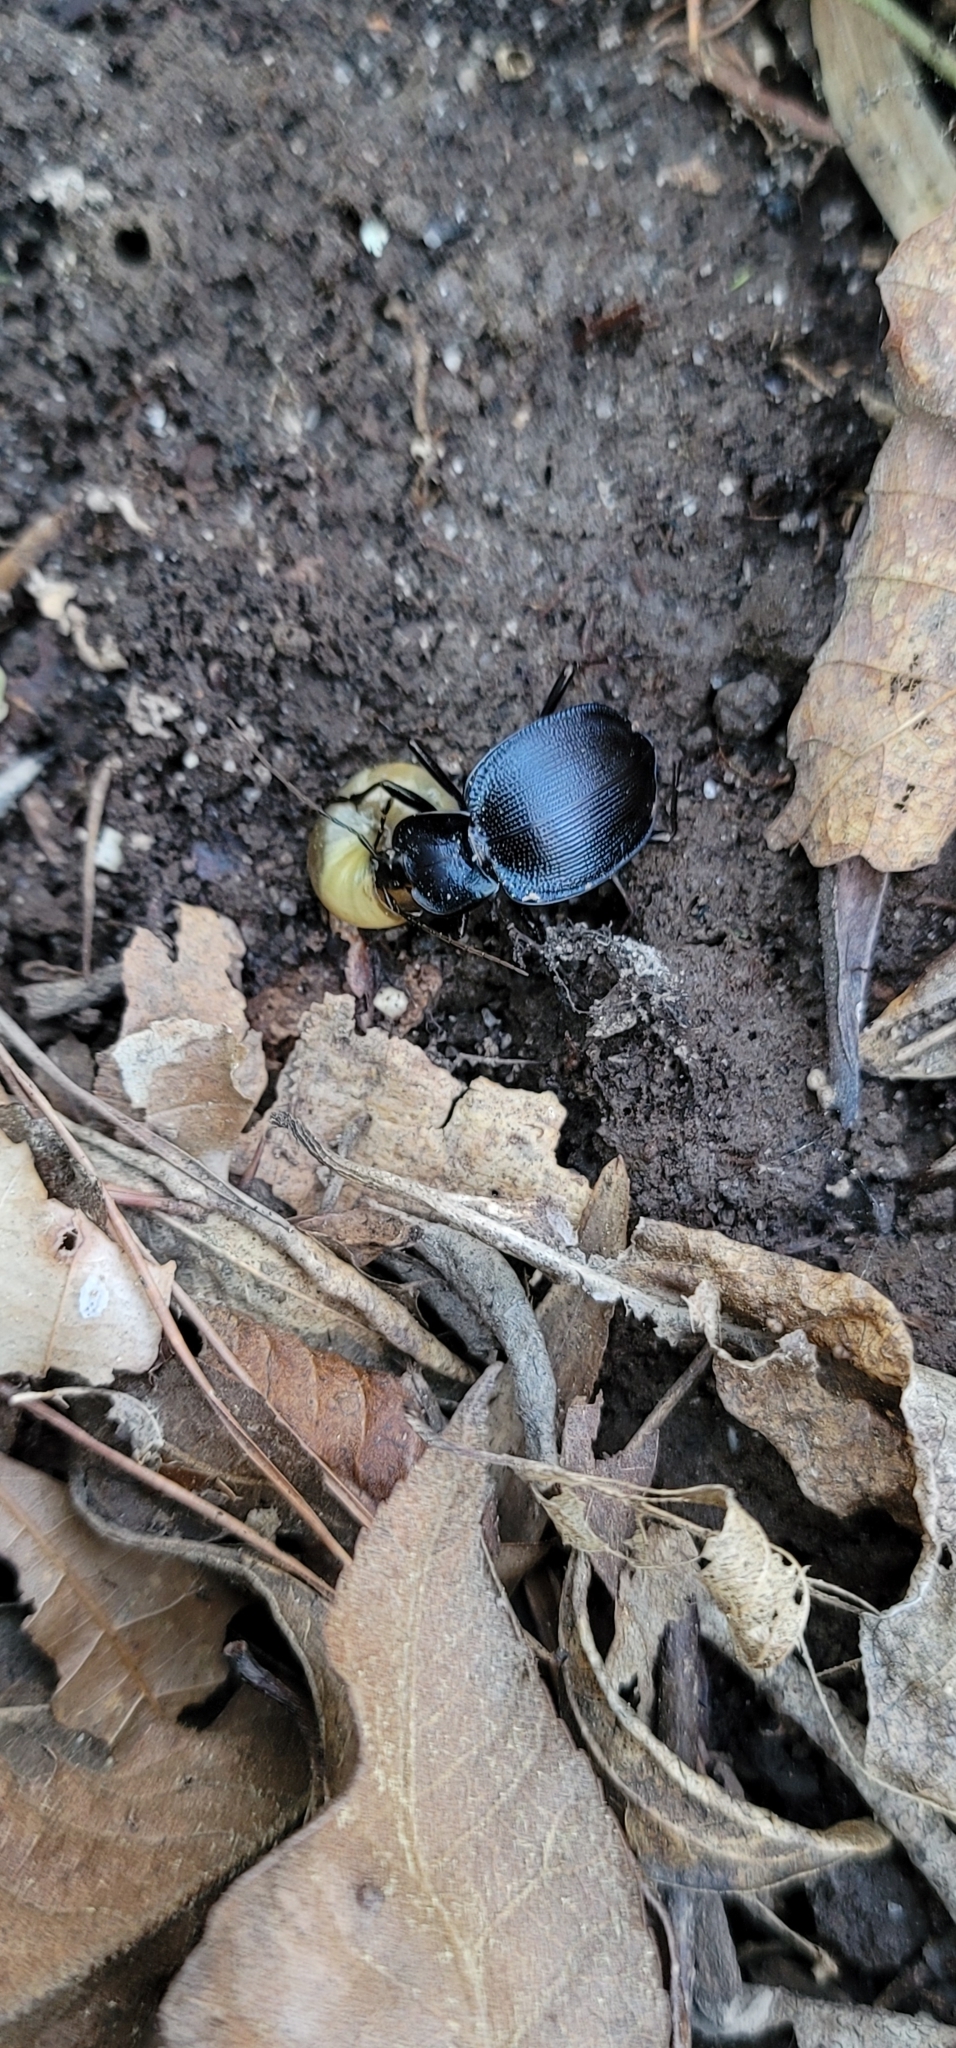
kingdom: Animalia
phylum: Arthropoda
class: Insecta
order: Coleoptera
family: Carabidae
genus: Scaphinotus
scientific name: Scaphinotus unicolor
